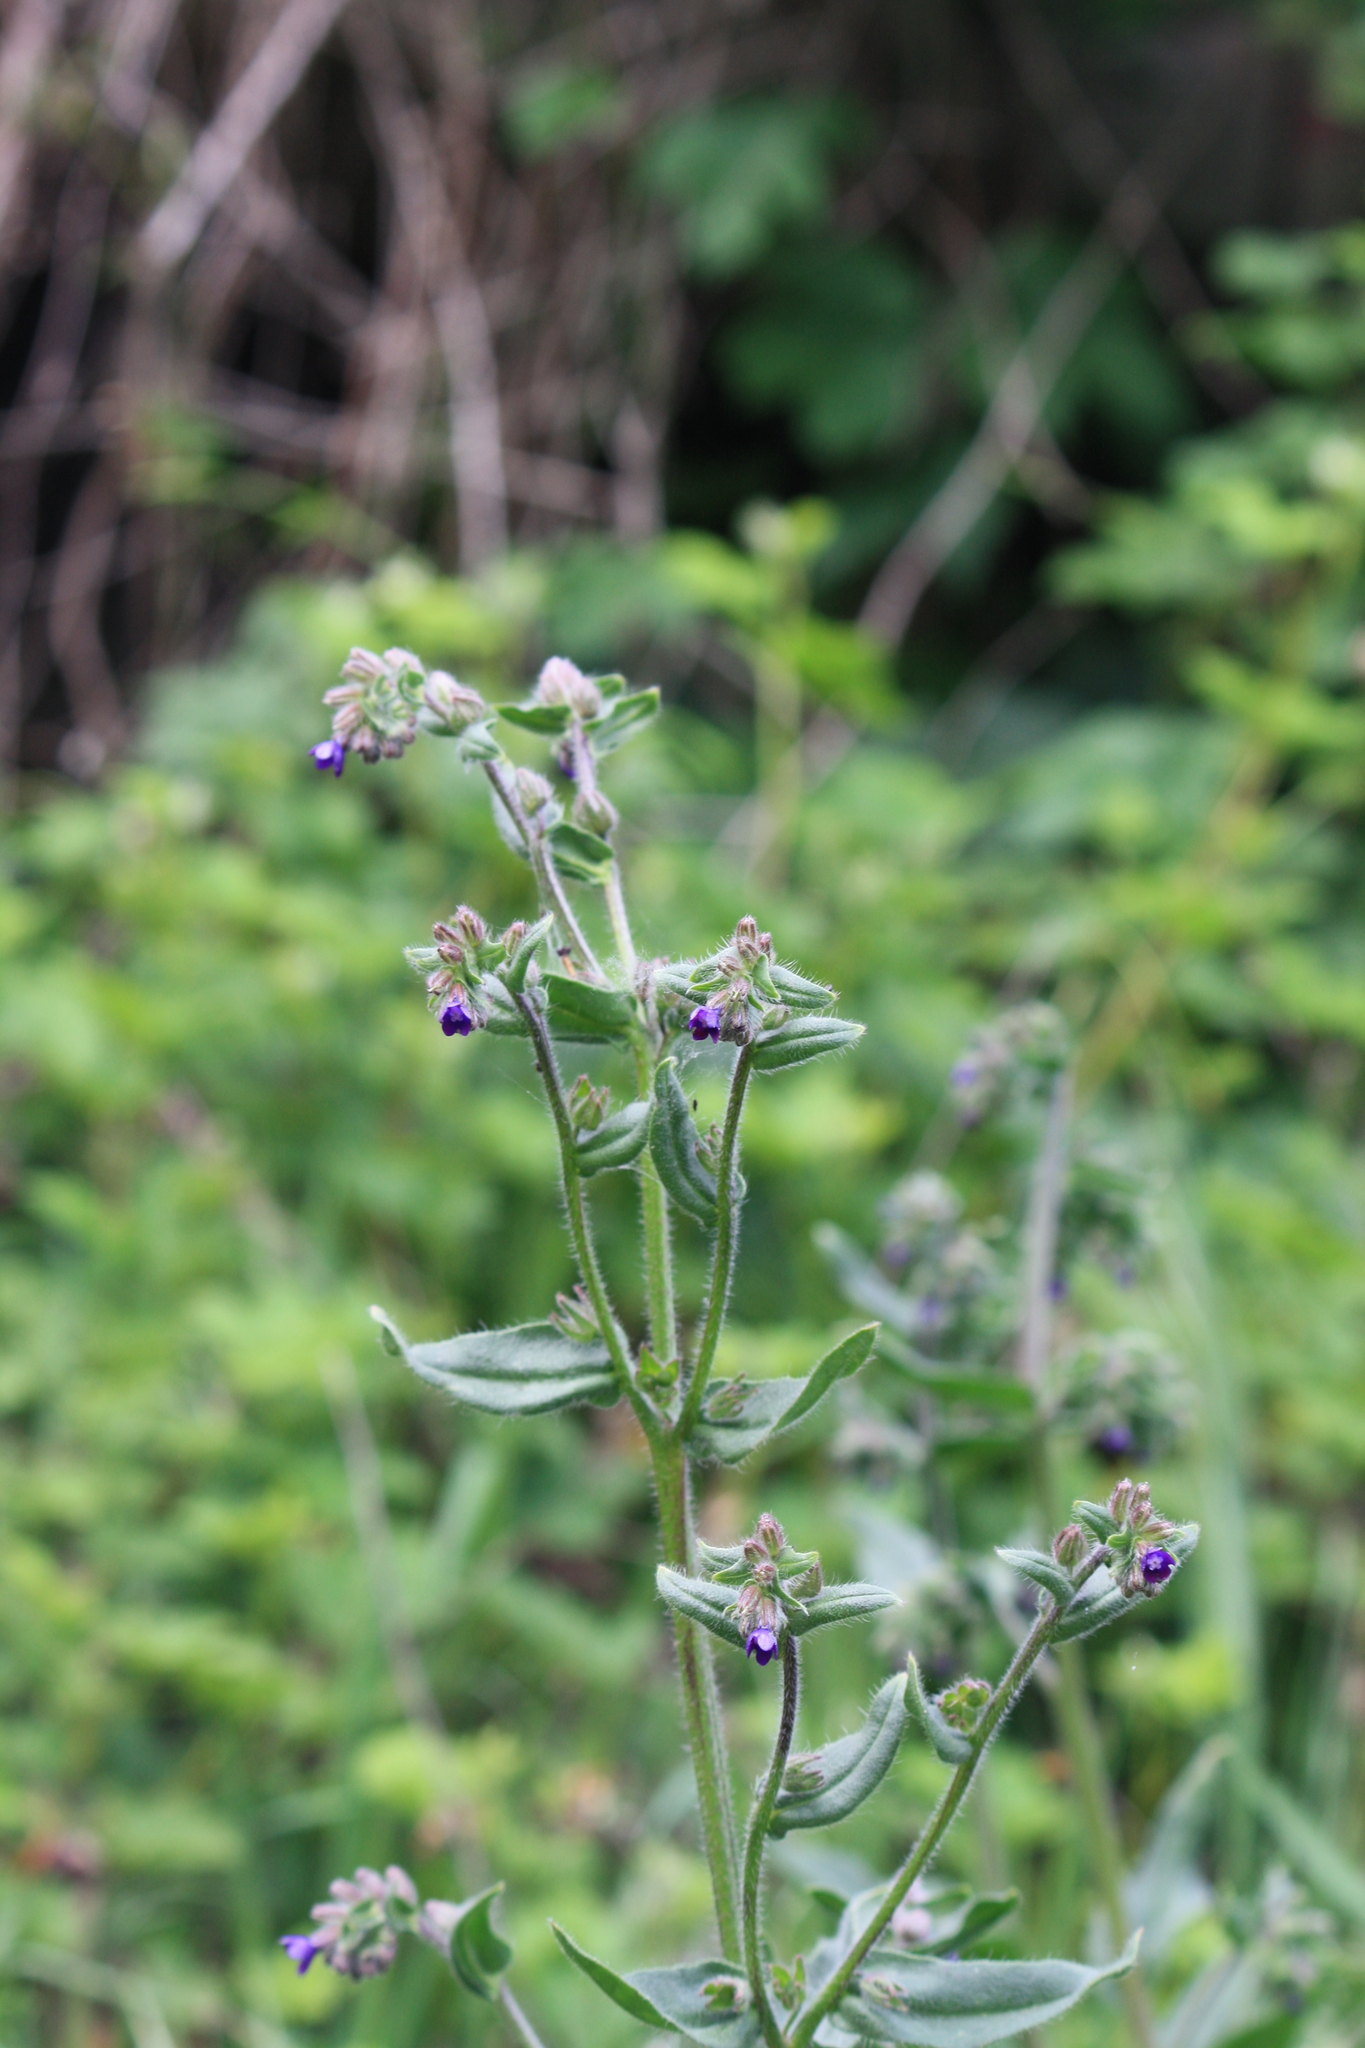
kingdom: Plantae
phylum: Tracheophyta
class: Magnoliopsida
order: Boraginales
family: Boraginaceae
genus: Anchusa
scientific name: Anchusa officinalis
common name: Alkanet
